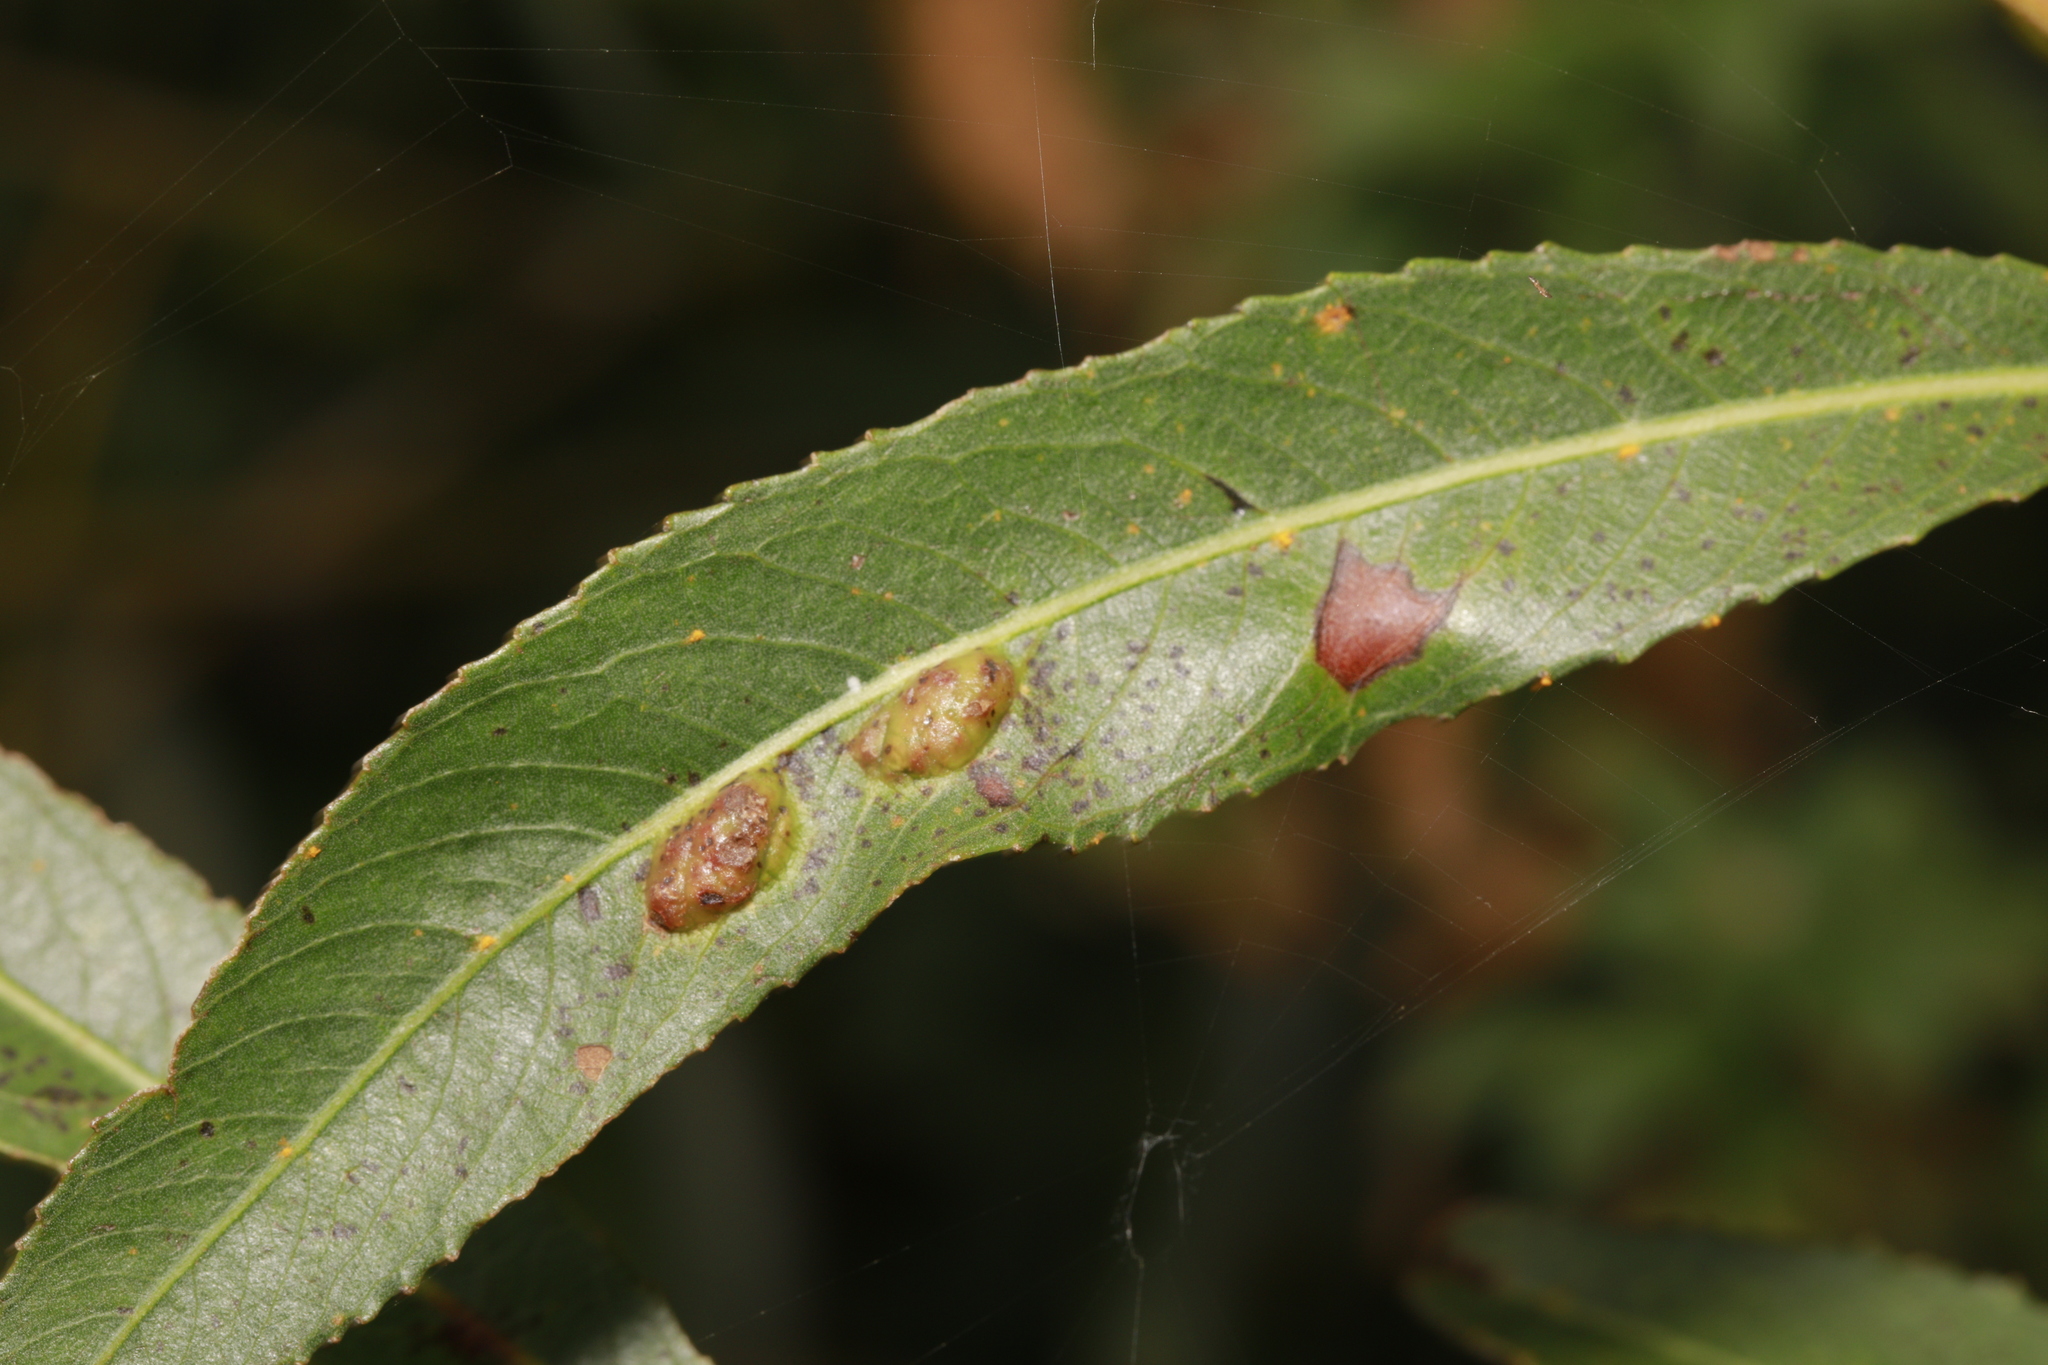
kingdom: Animalia
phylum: Arthropoda
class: Insecta
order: Hymenoptera
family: Tenthredinidae
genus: Pontania
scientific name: Pontania proxima
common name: Common sawfly
